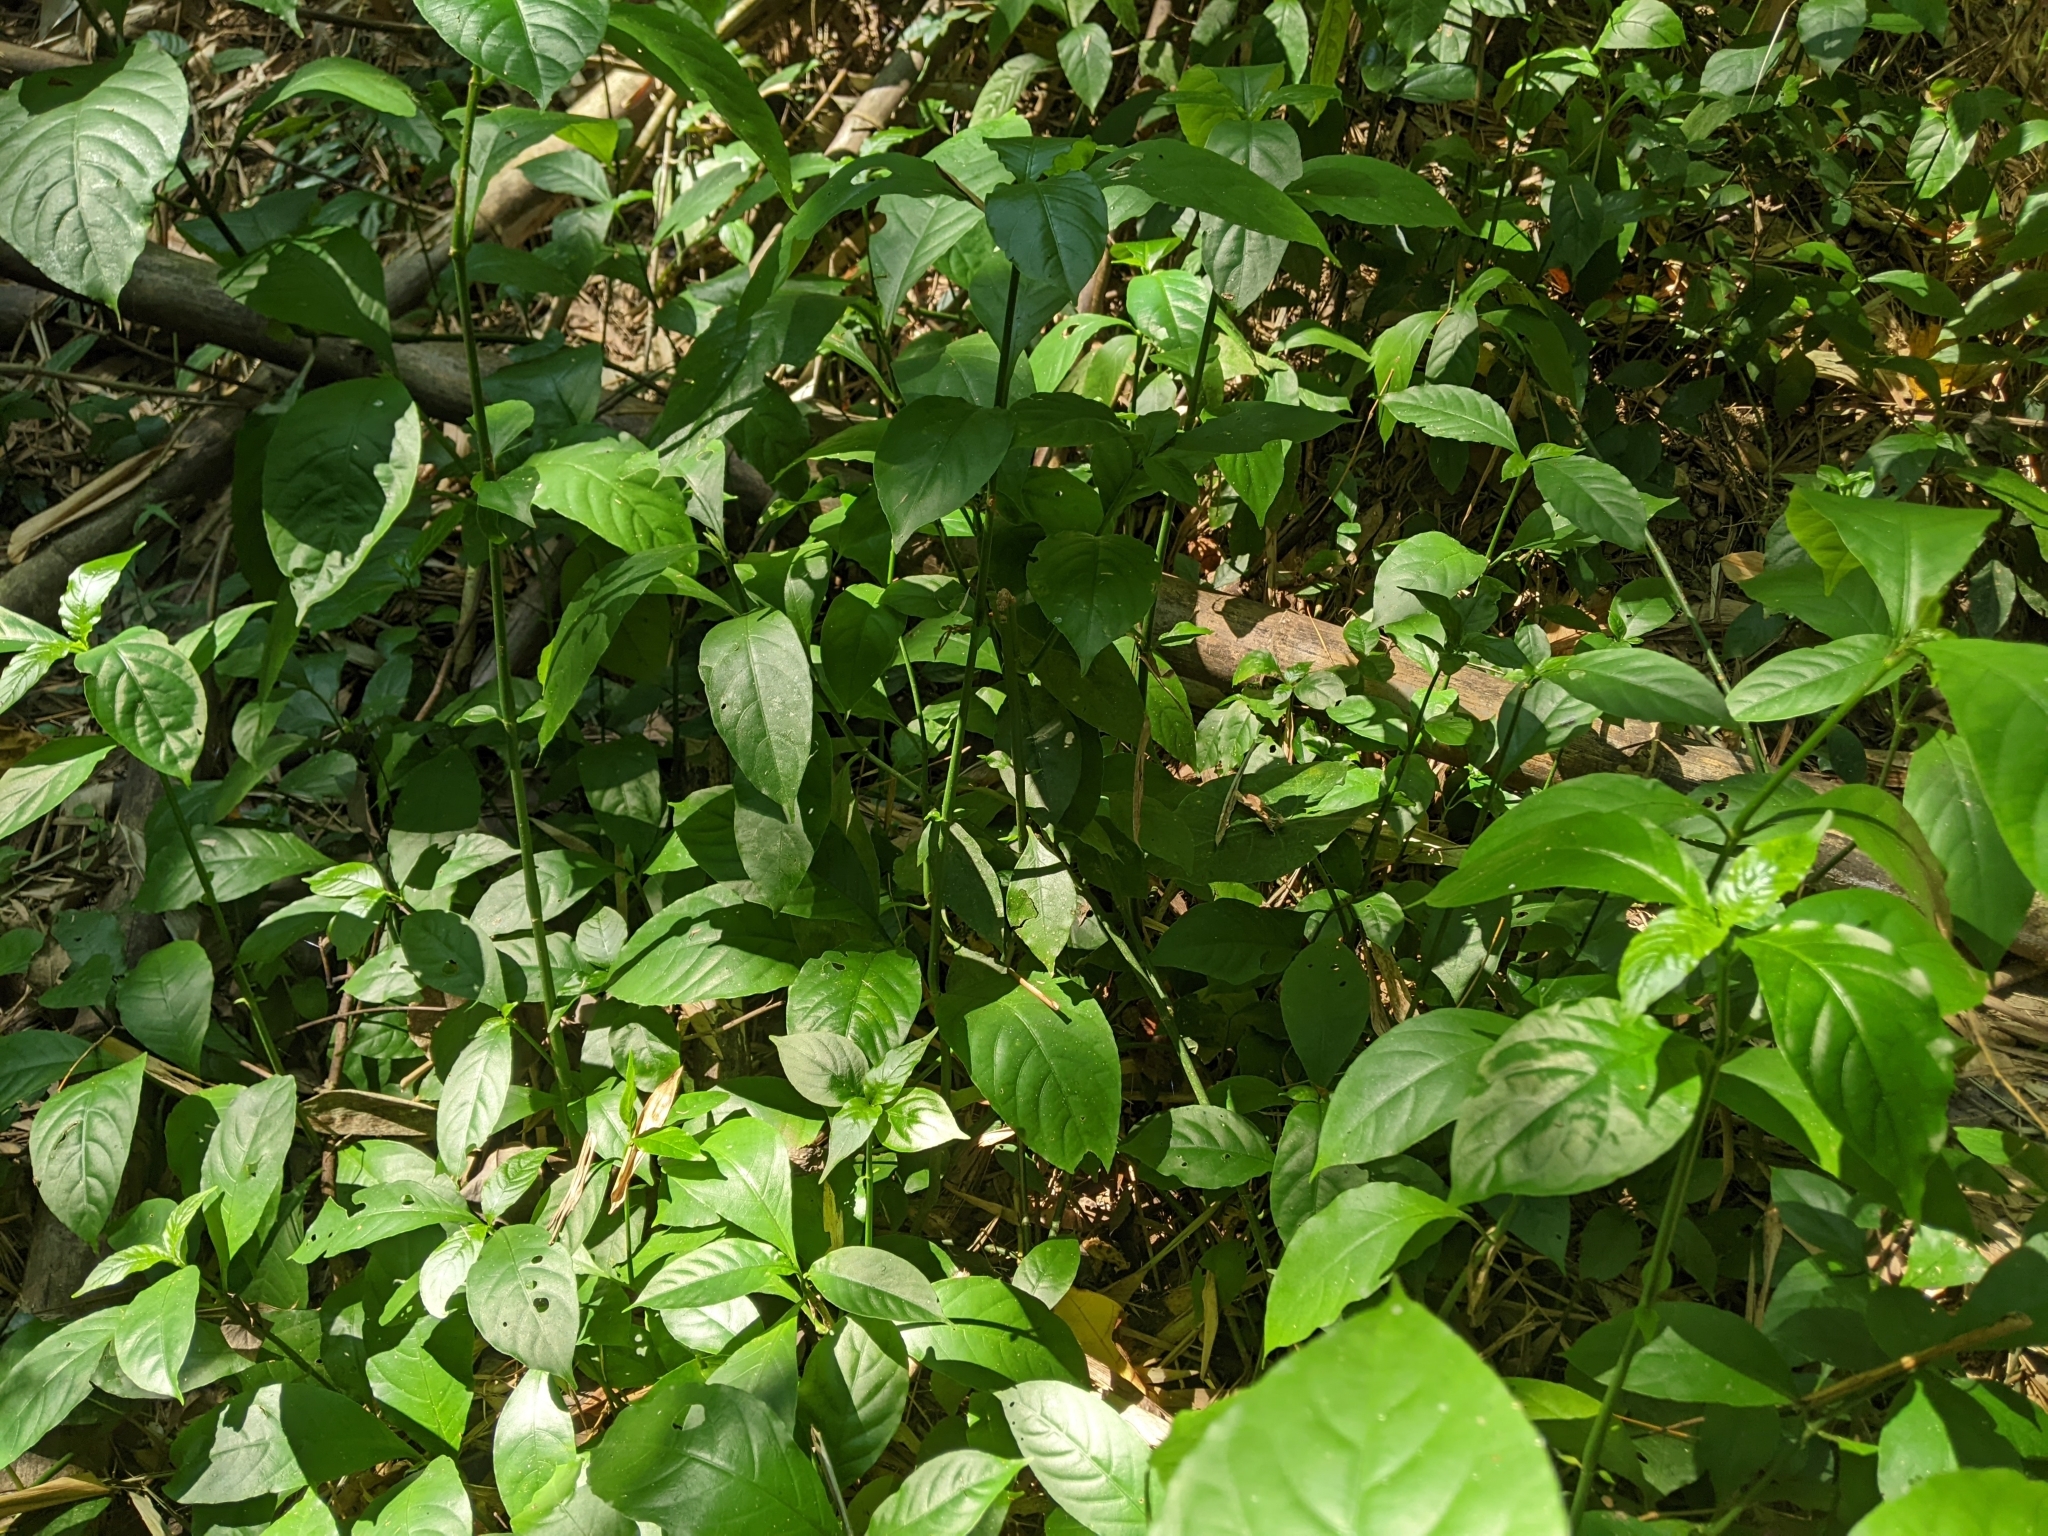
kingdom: Plantae
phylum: Tracheophyta
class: Magnoliopsida
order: Lamiales
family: Acanthaceae
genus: Odontonema
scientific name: Odontonema tubaeforme
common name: Firespike
